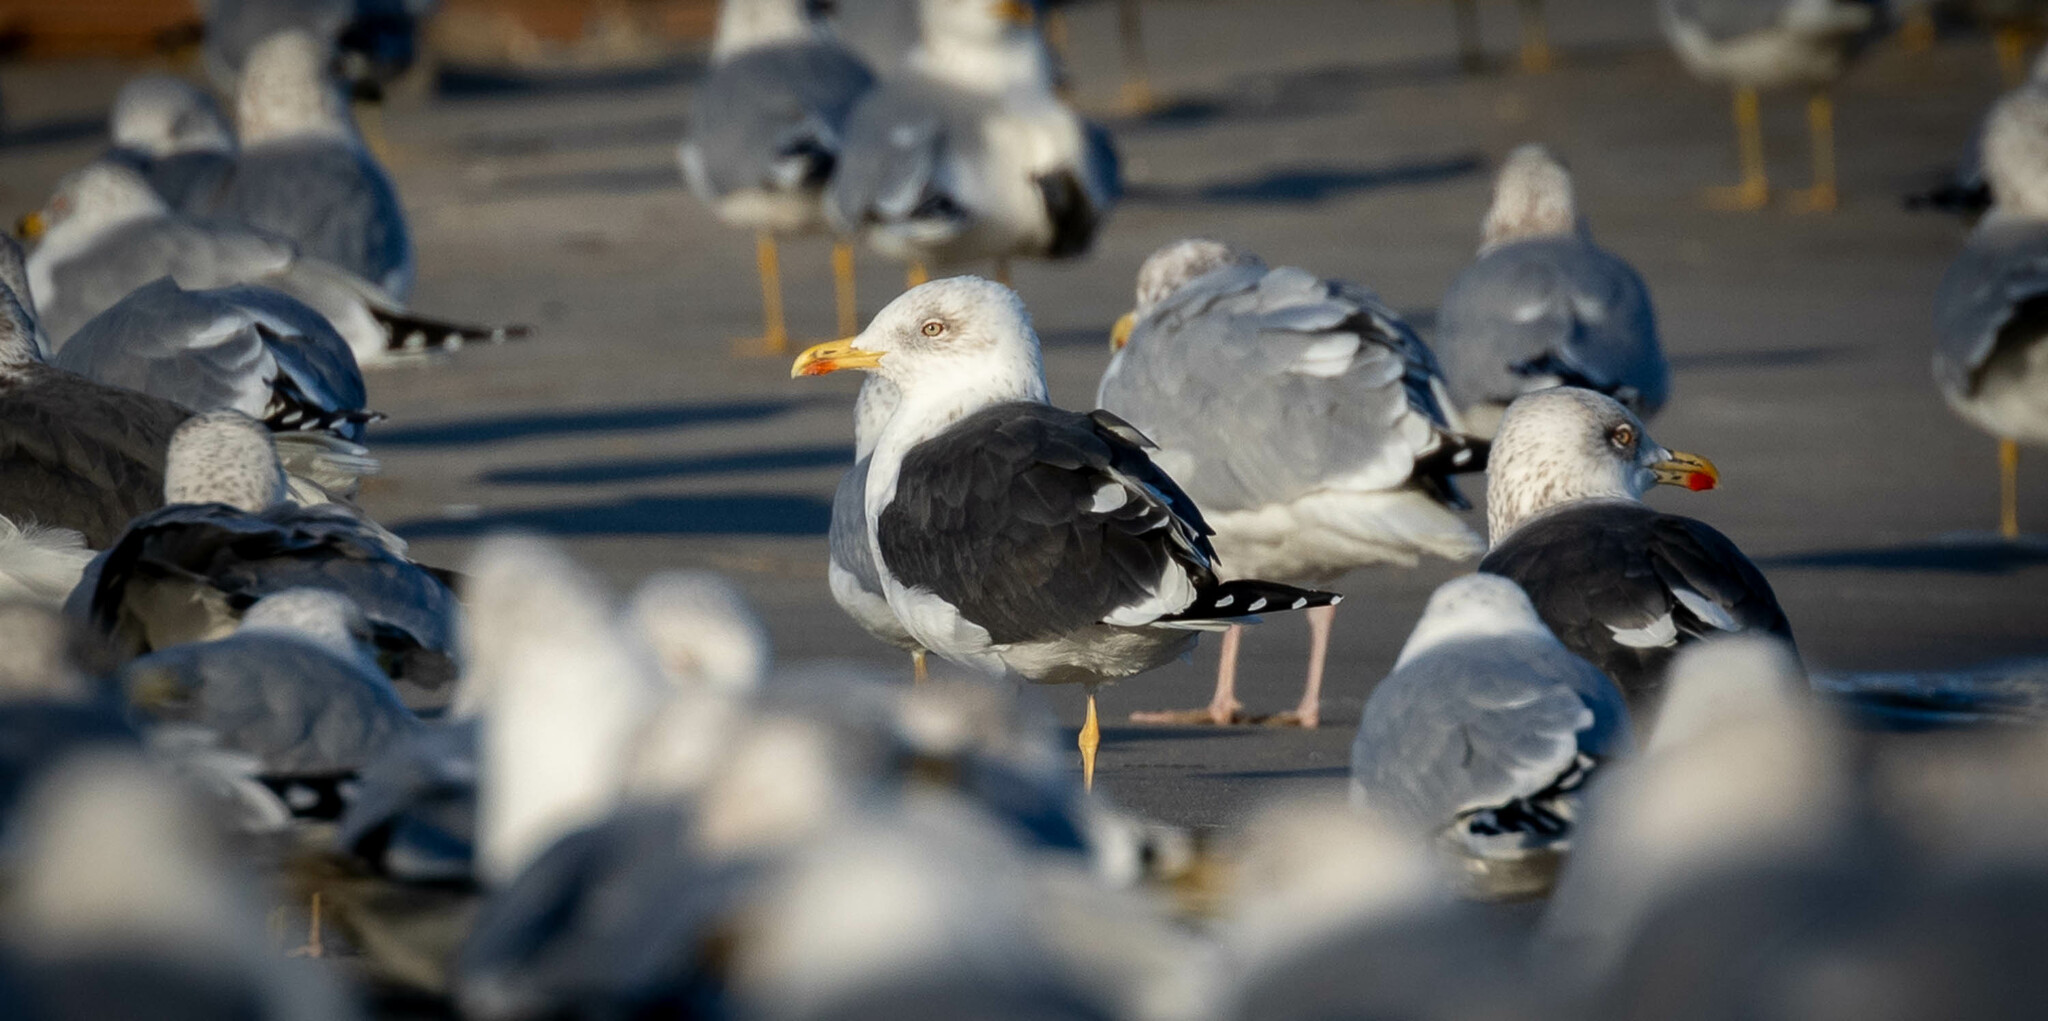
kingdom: Animalia
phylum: Chordata
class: Aves
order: Charadriiformes
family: Laridae
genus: Larus
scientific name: Larus fuscus
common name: Lesser black-backed gull
